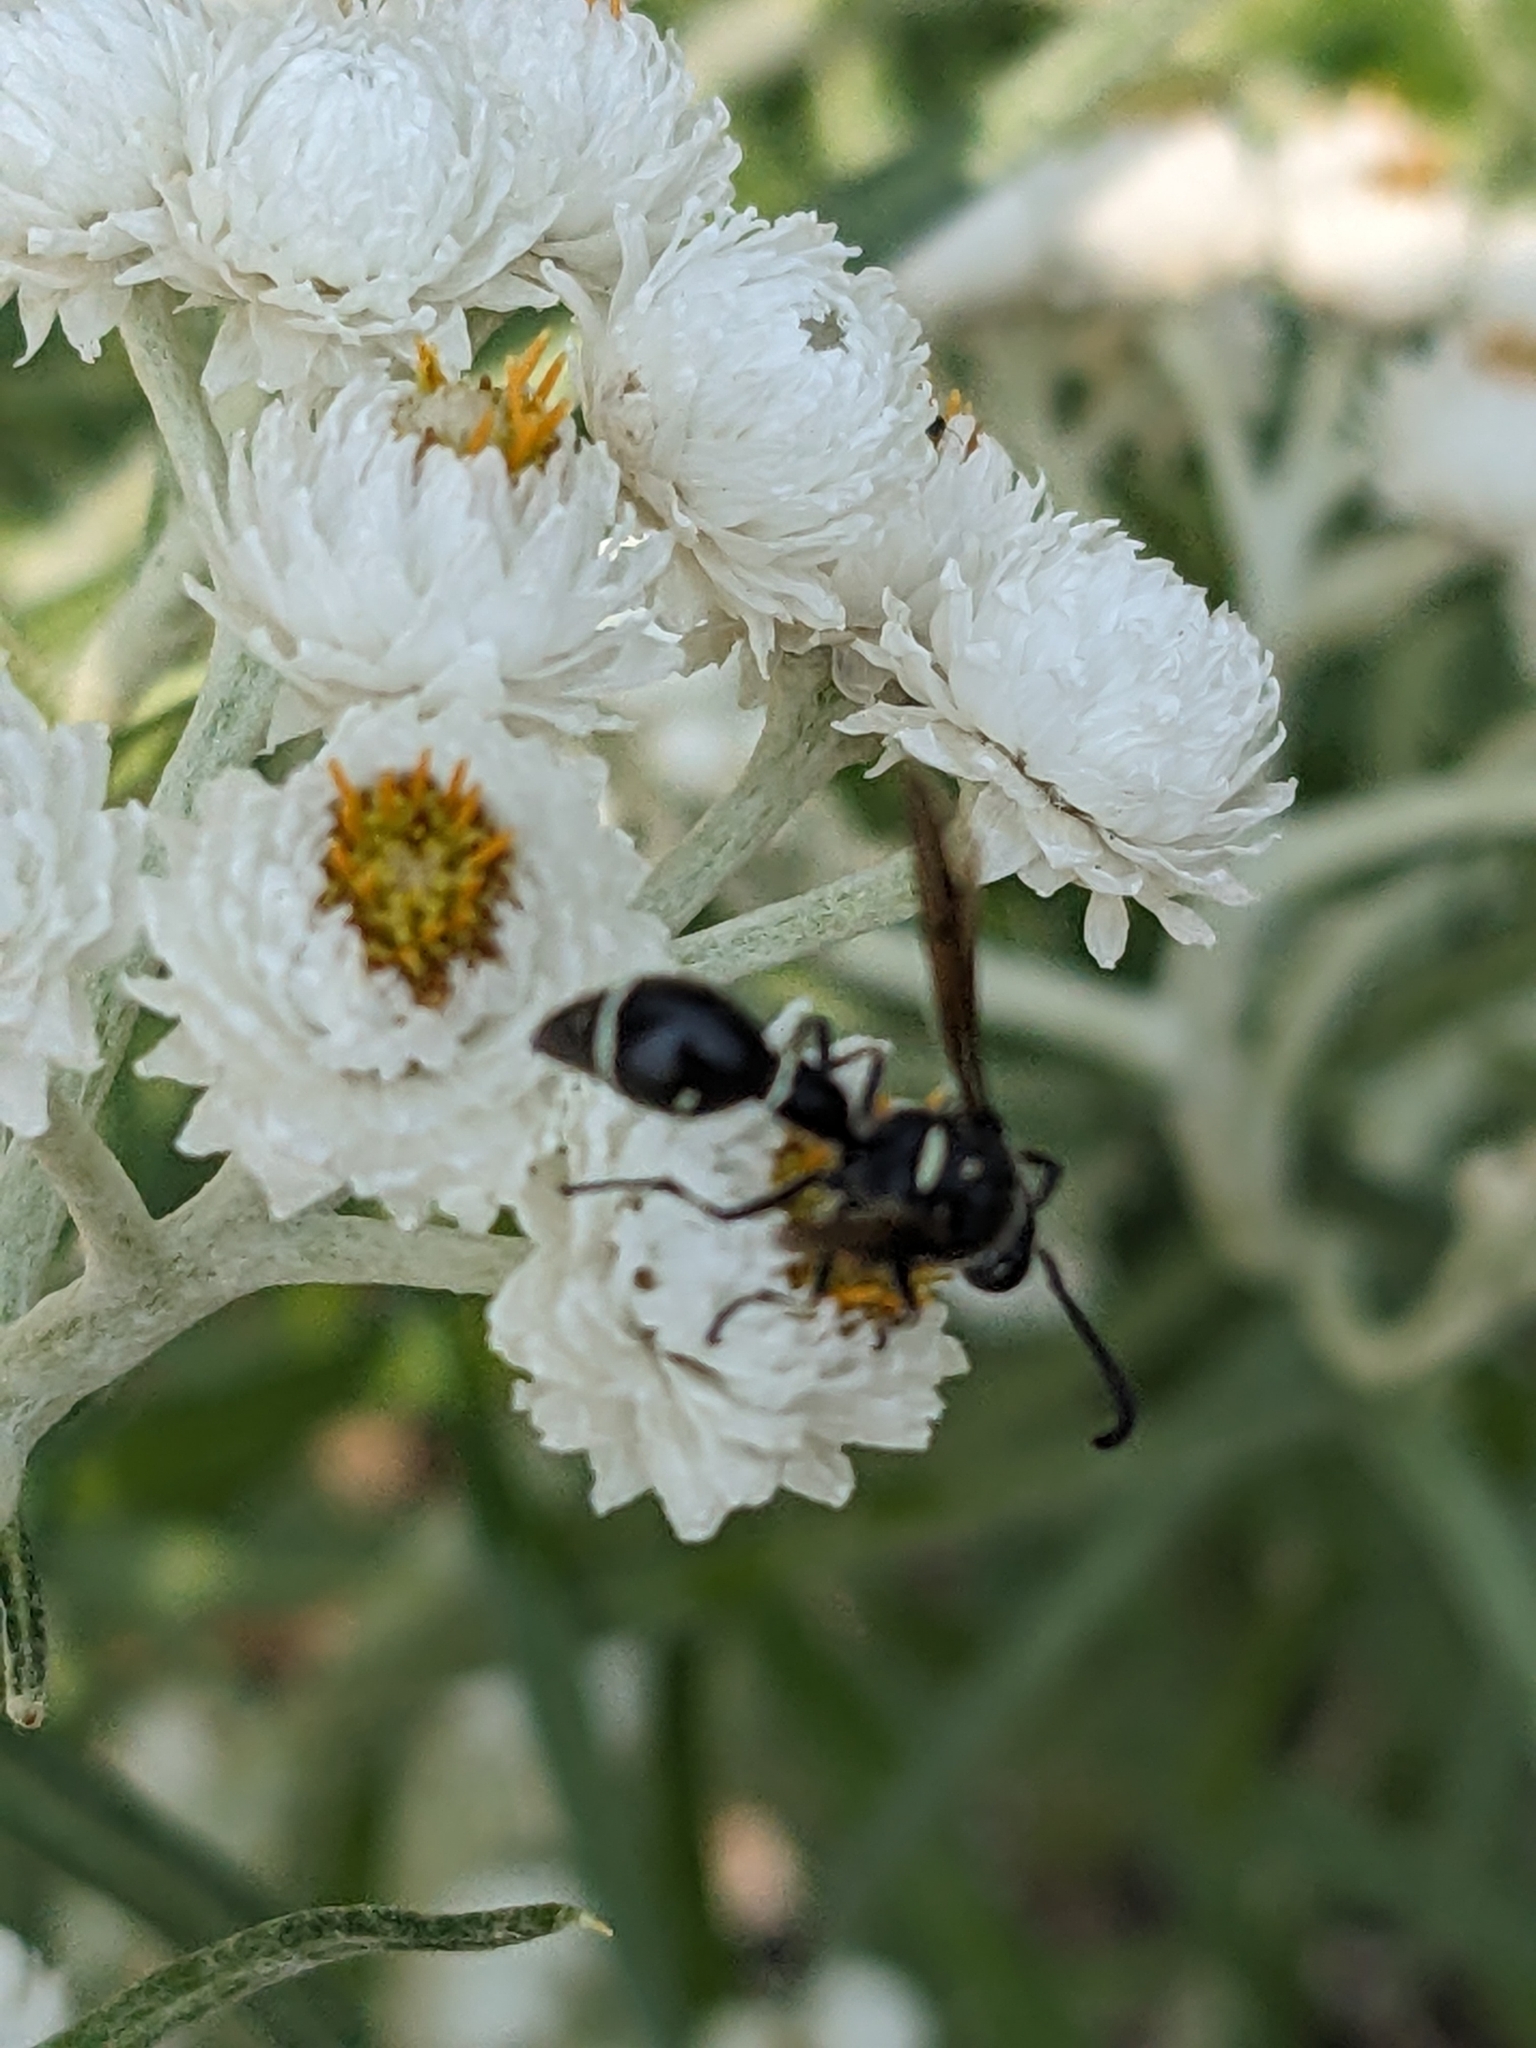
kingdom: Animalia
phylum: Arthropoda
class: Insecta
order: Hymenoptera
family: Vespidae
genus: Eumenes
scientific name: Eumenes fraternus
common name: Fraternal potter wasp
